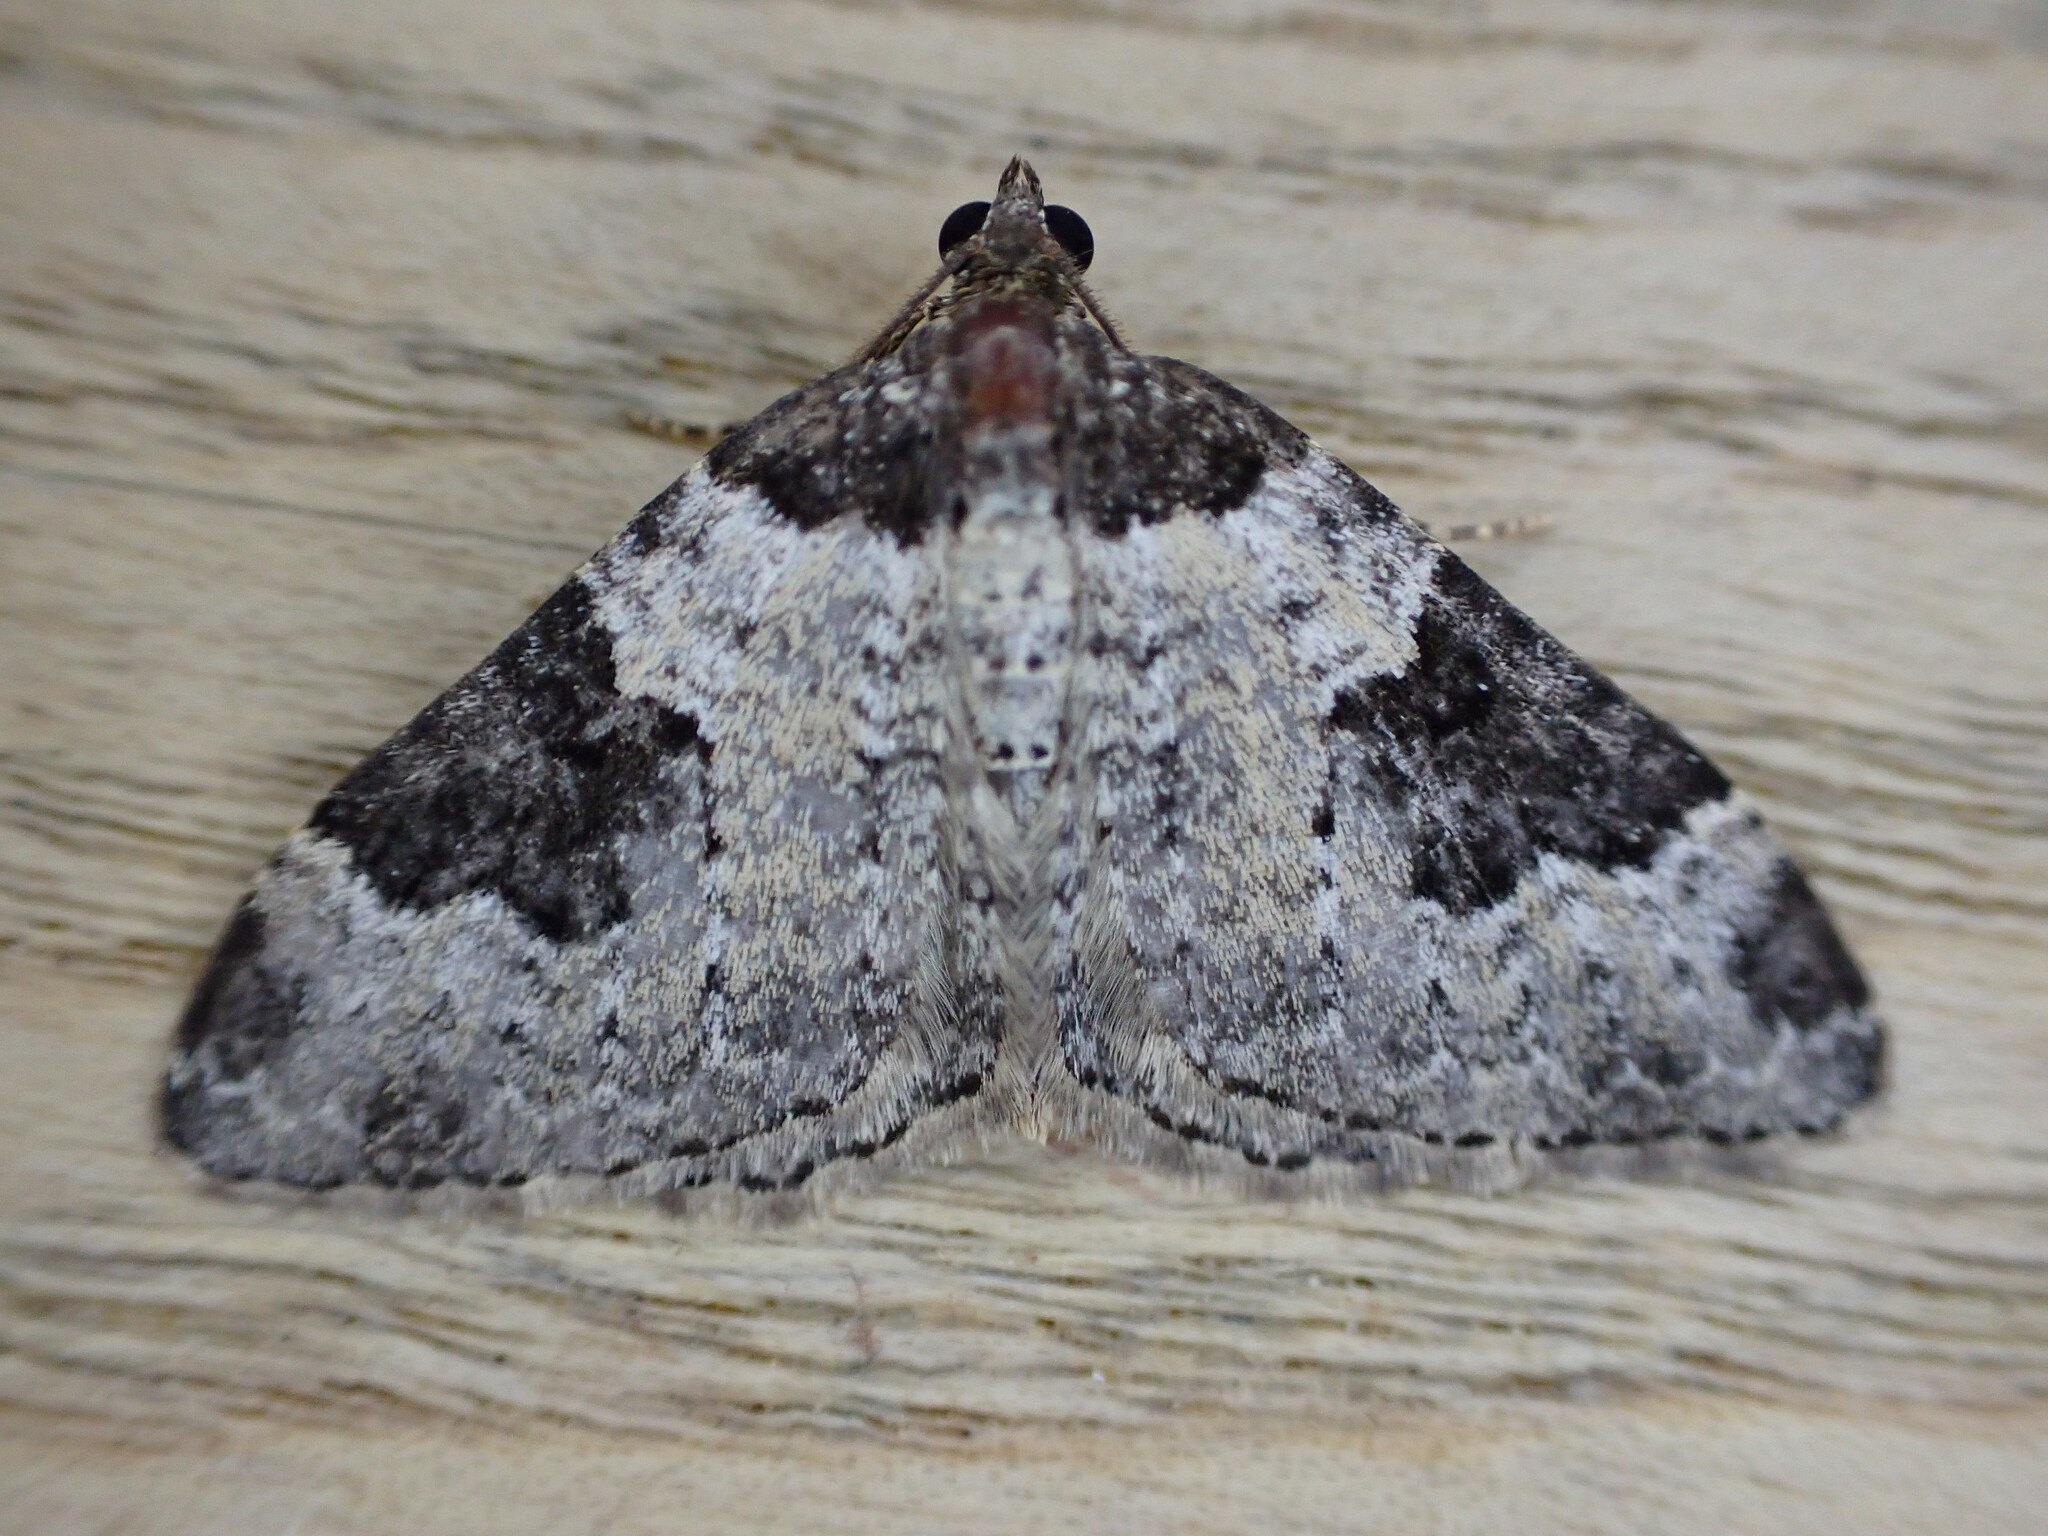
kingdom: Animalia
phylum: Arthropoda
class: Insecta
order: Lepidoptera
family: Geometridae
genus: Xanthorhoe
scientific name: Xanthorhoe fluctuata
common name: Garden carpet
